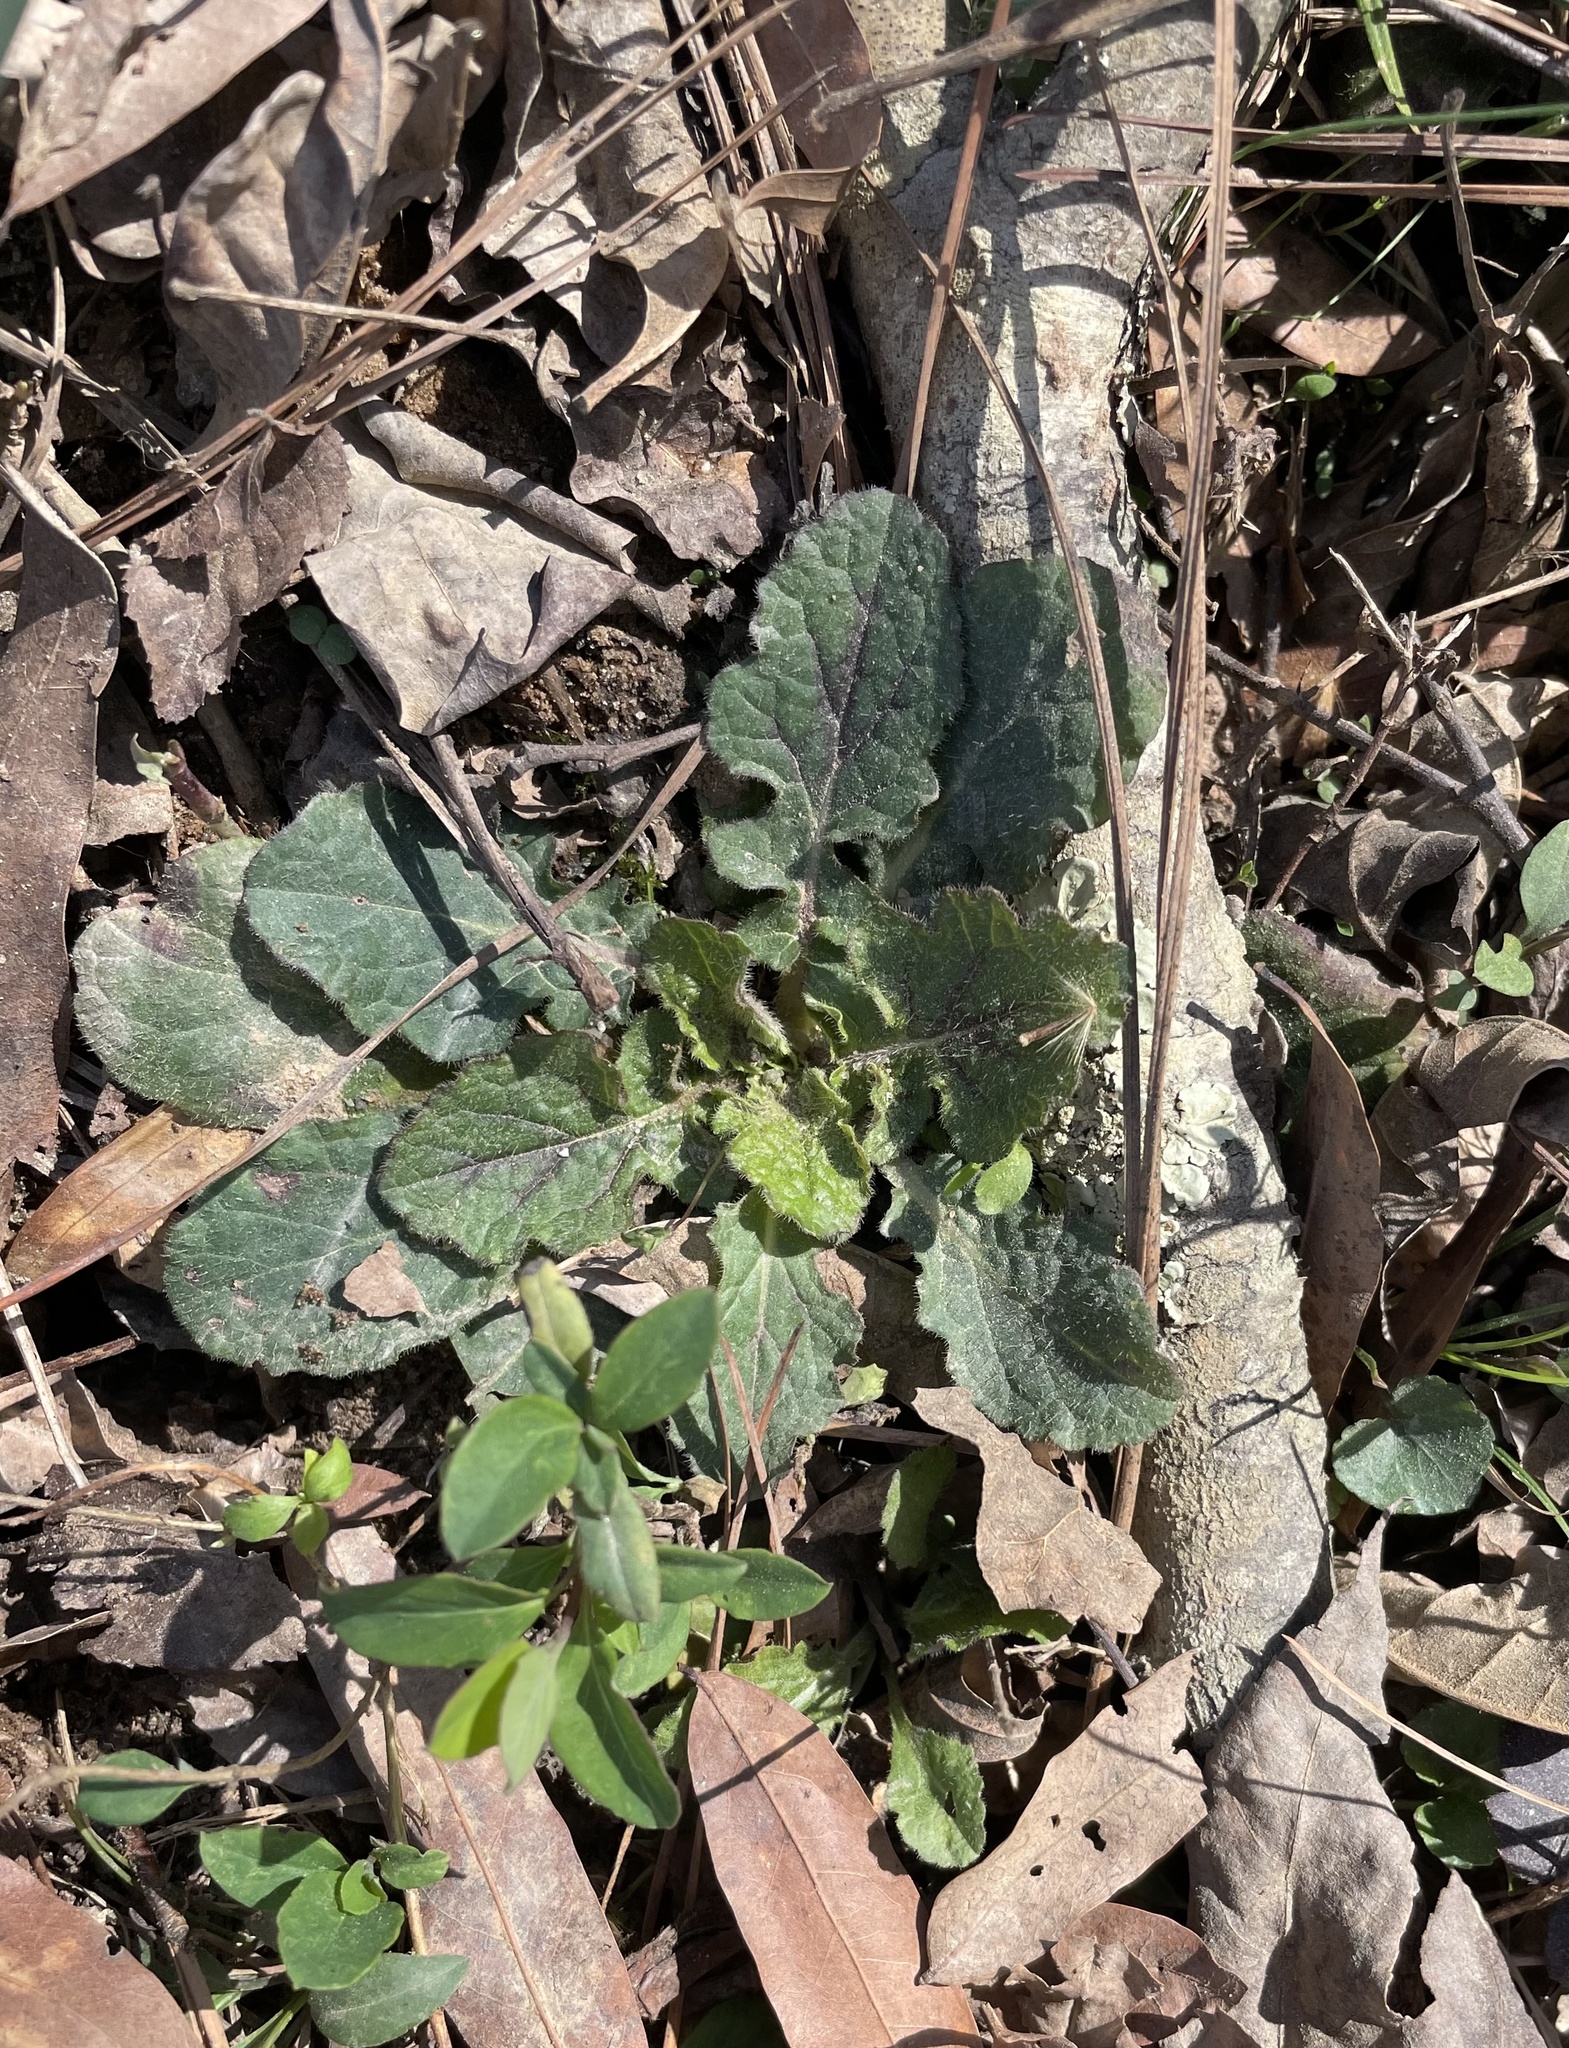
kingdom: Plantae
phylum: Tracheophyta
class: Magnoliopsida
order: Lamiales
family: Lamiaceae
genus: Salvia
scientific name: Salvia lyrata
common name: Cancerweed
